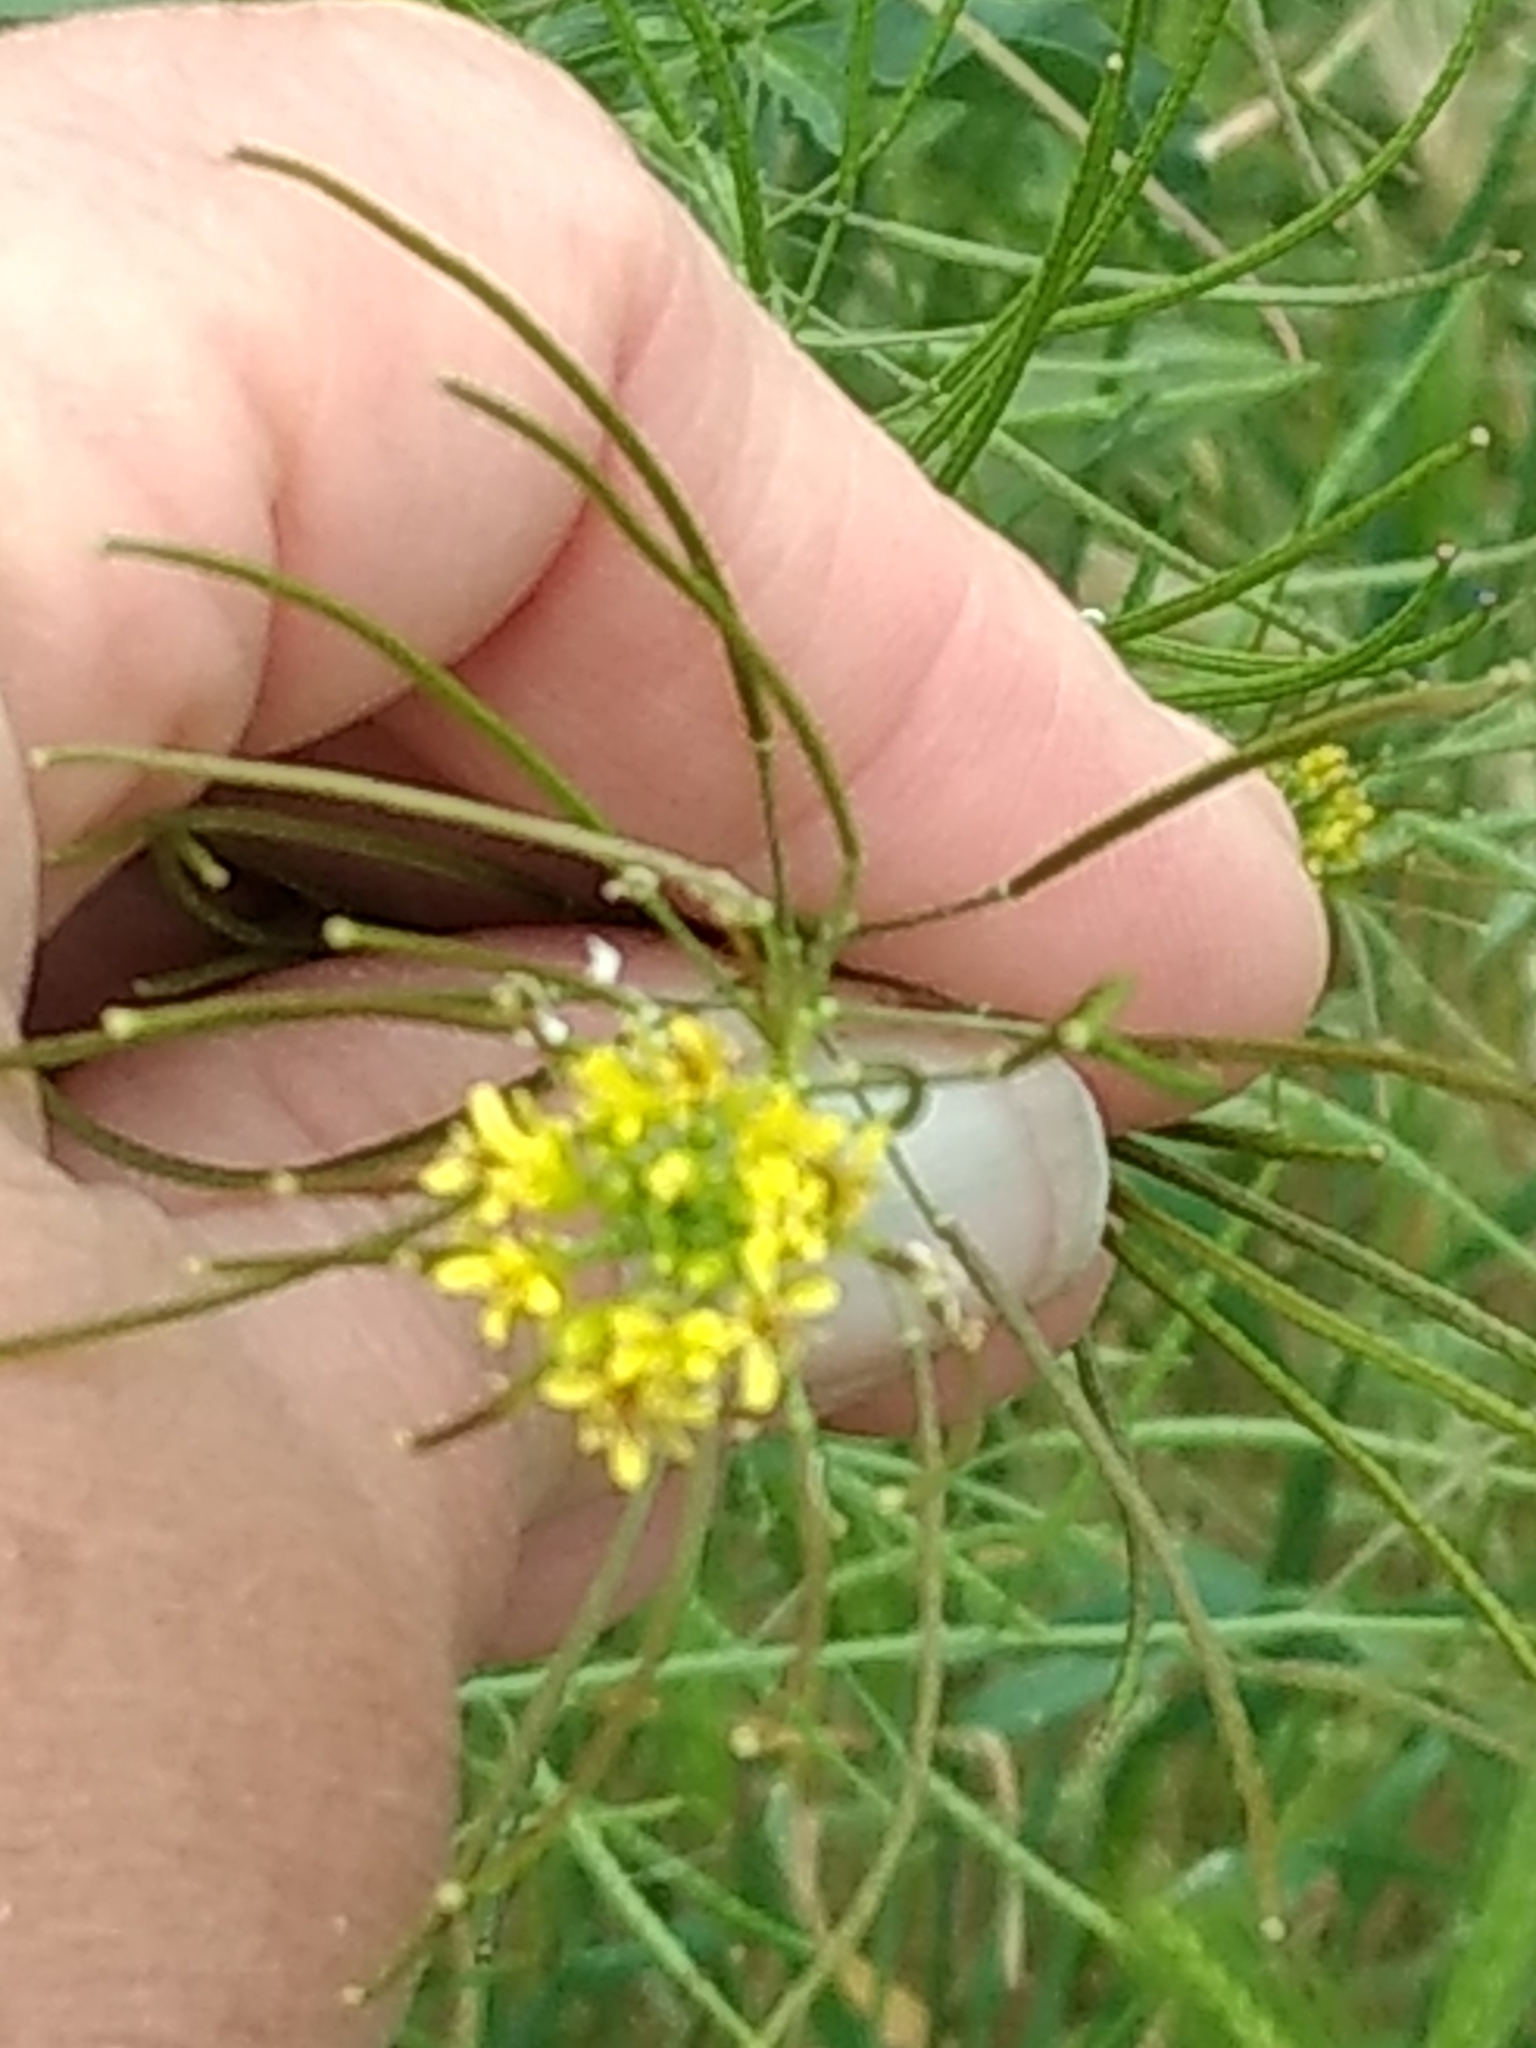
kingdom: Plantae
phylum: Tracheophyta
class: Magnoliopsida
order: Brassicales
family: Brassicaceae
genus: Sisymbrium
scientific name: Sisymbrium irio
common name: London rocket
